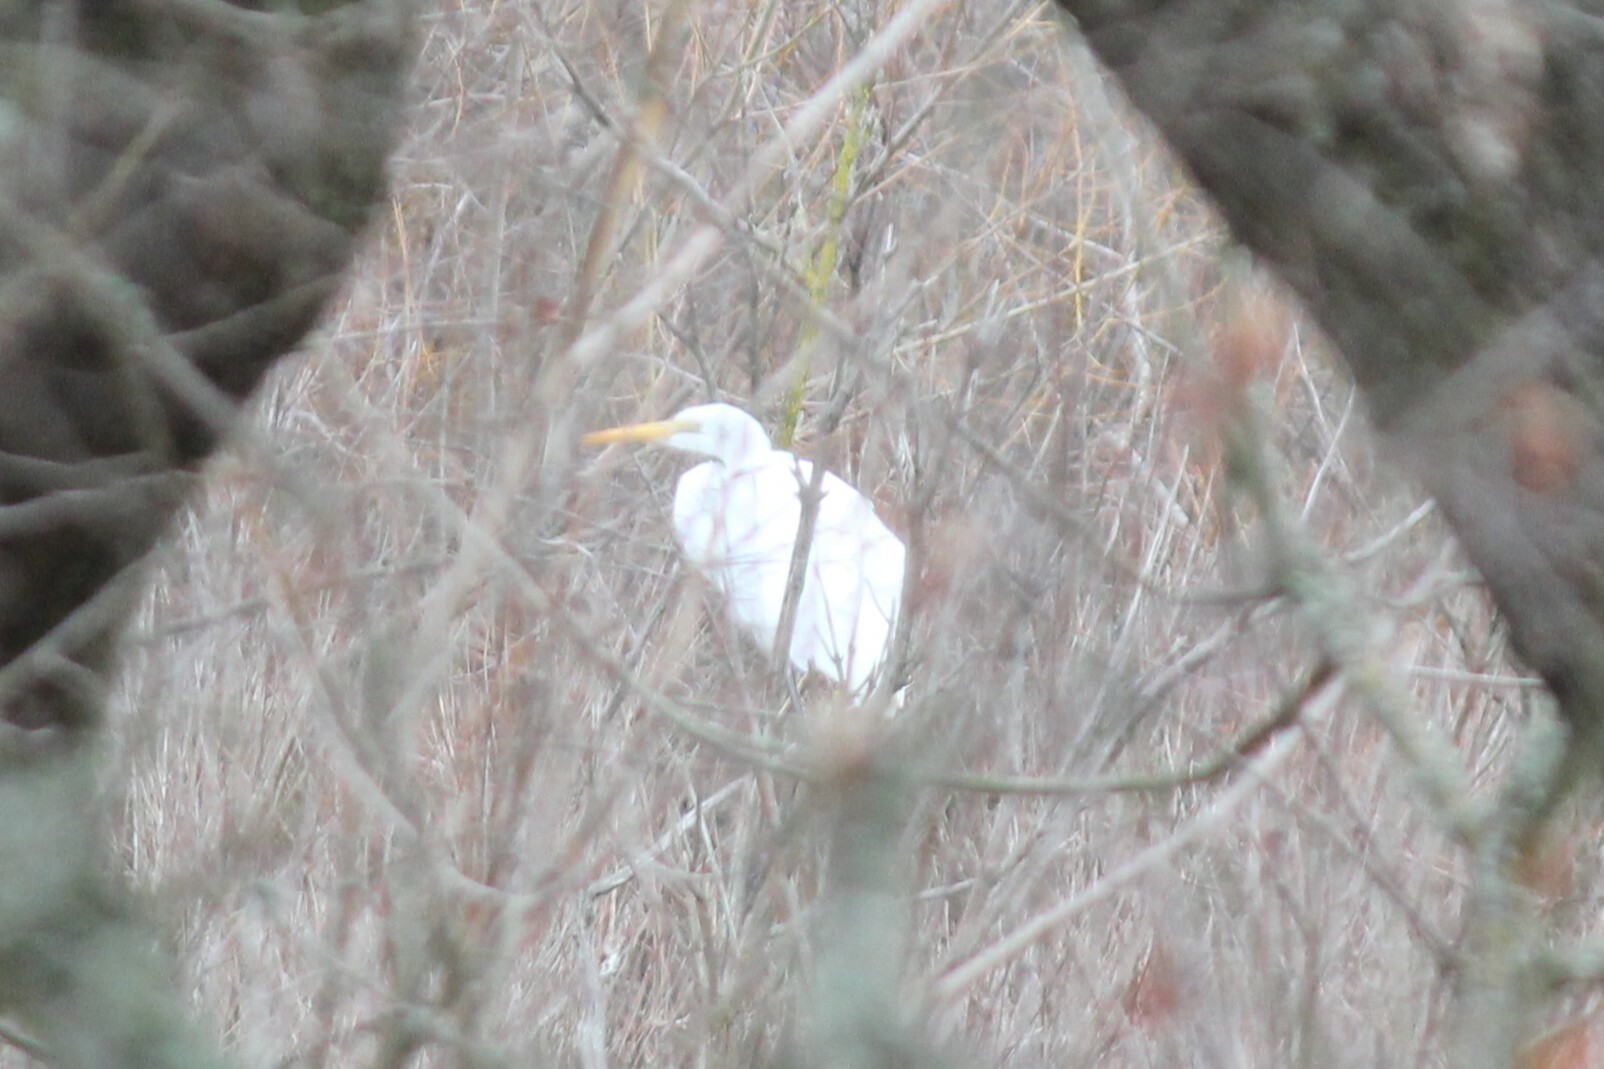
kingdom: Animalia
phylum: Chordata
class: Aves
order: Pelecaniformes
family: Ardeidae
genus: Ardea
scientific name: Ardea alba
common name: Great egret
